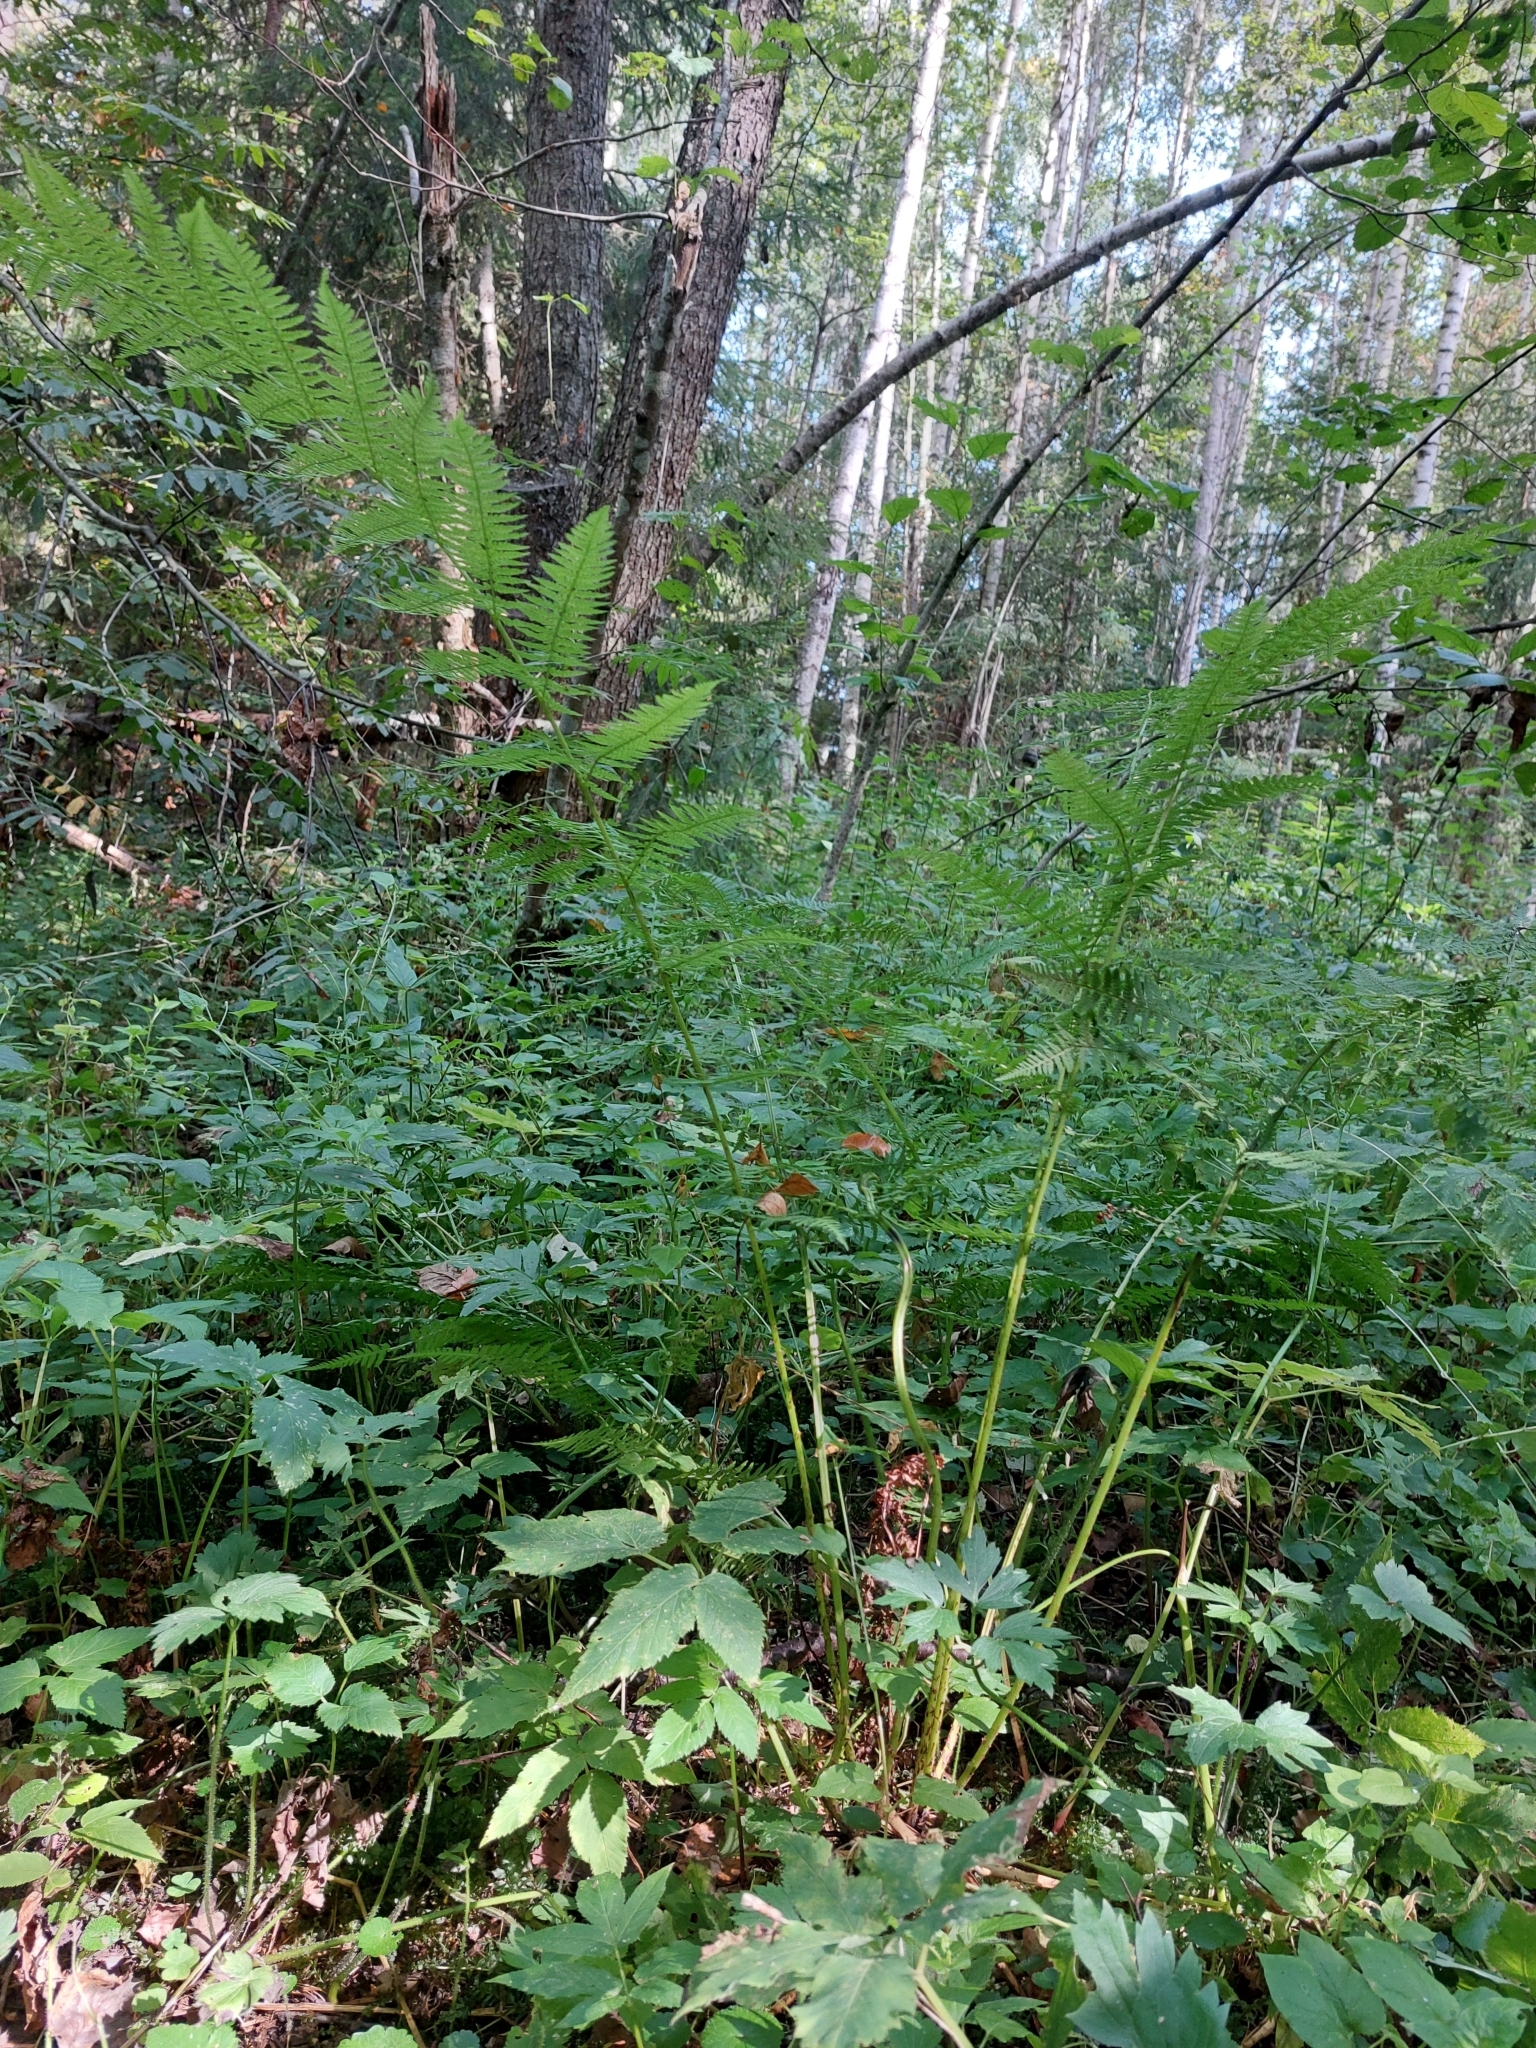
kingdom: Plantae
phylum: Tracheophyta
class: Polypodiopsida
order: Polypodiales
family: Athyriaceae
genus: Athyrium
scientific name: Athyrium filix-femina
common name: Lady fern
